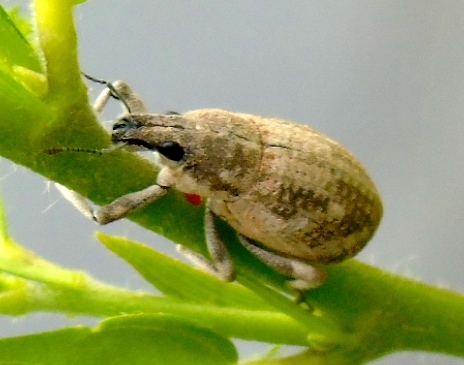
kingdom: Animalia
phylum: Arthropoda
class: Insecta
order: Coleoptera
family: Curculionidae
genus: Epicaerus
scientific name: Epicaerus
